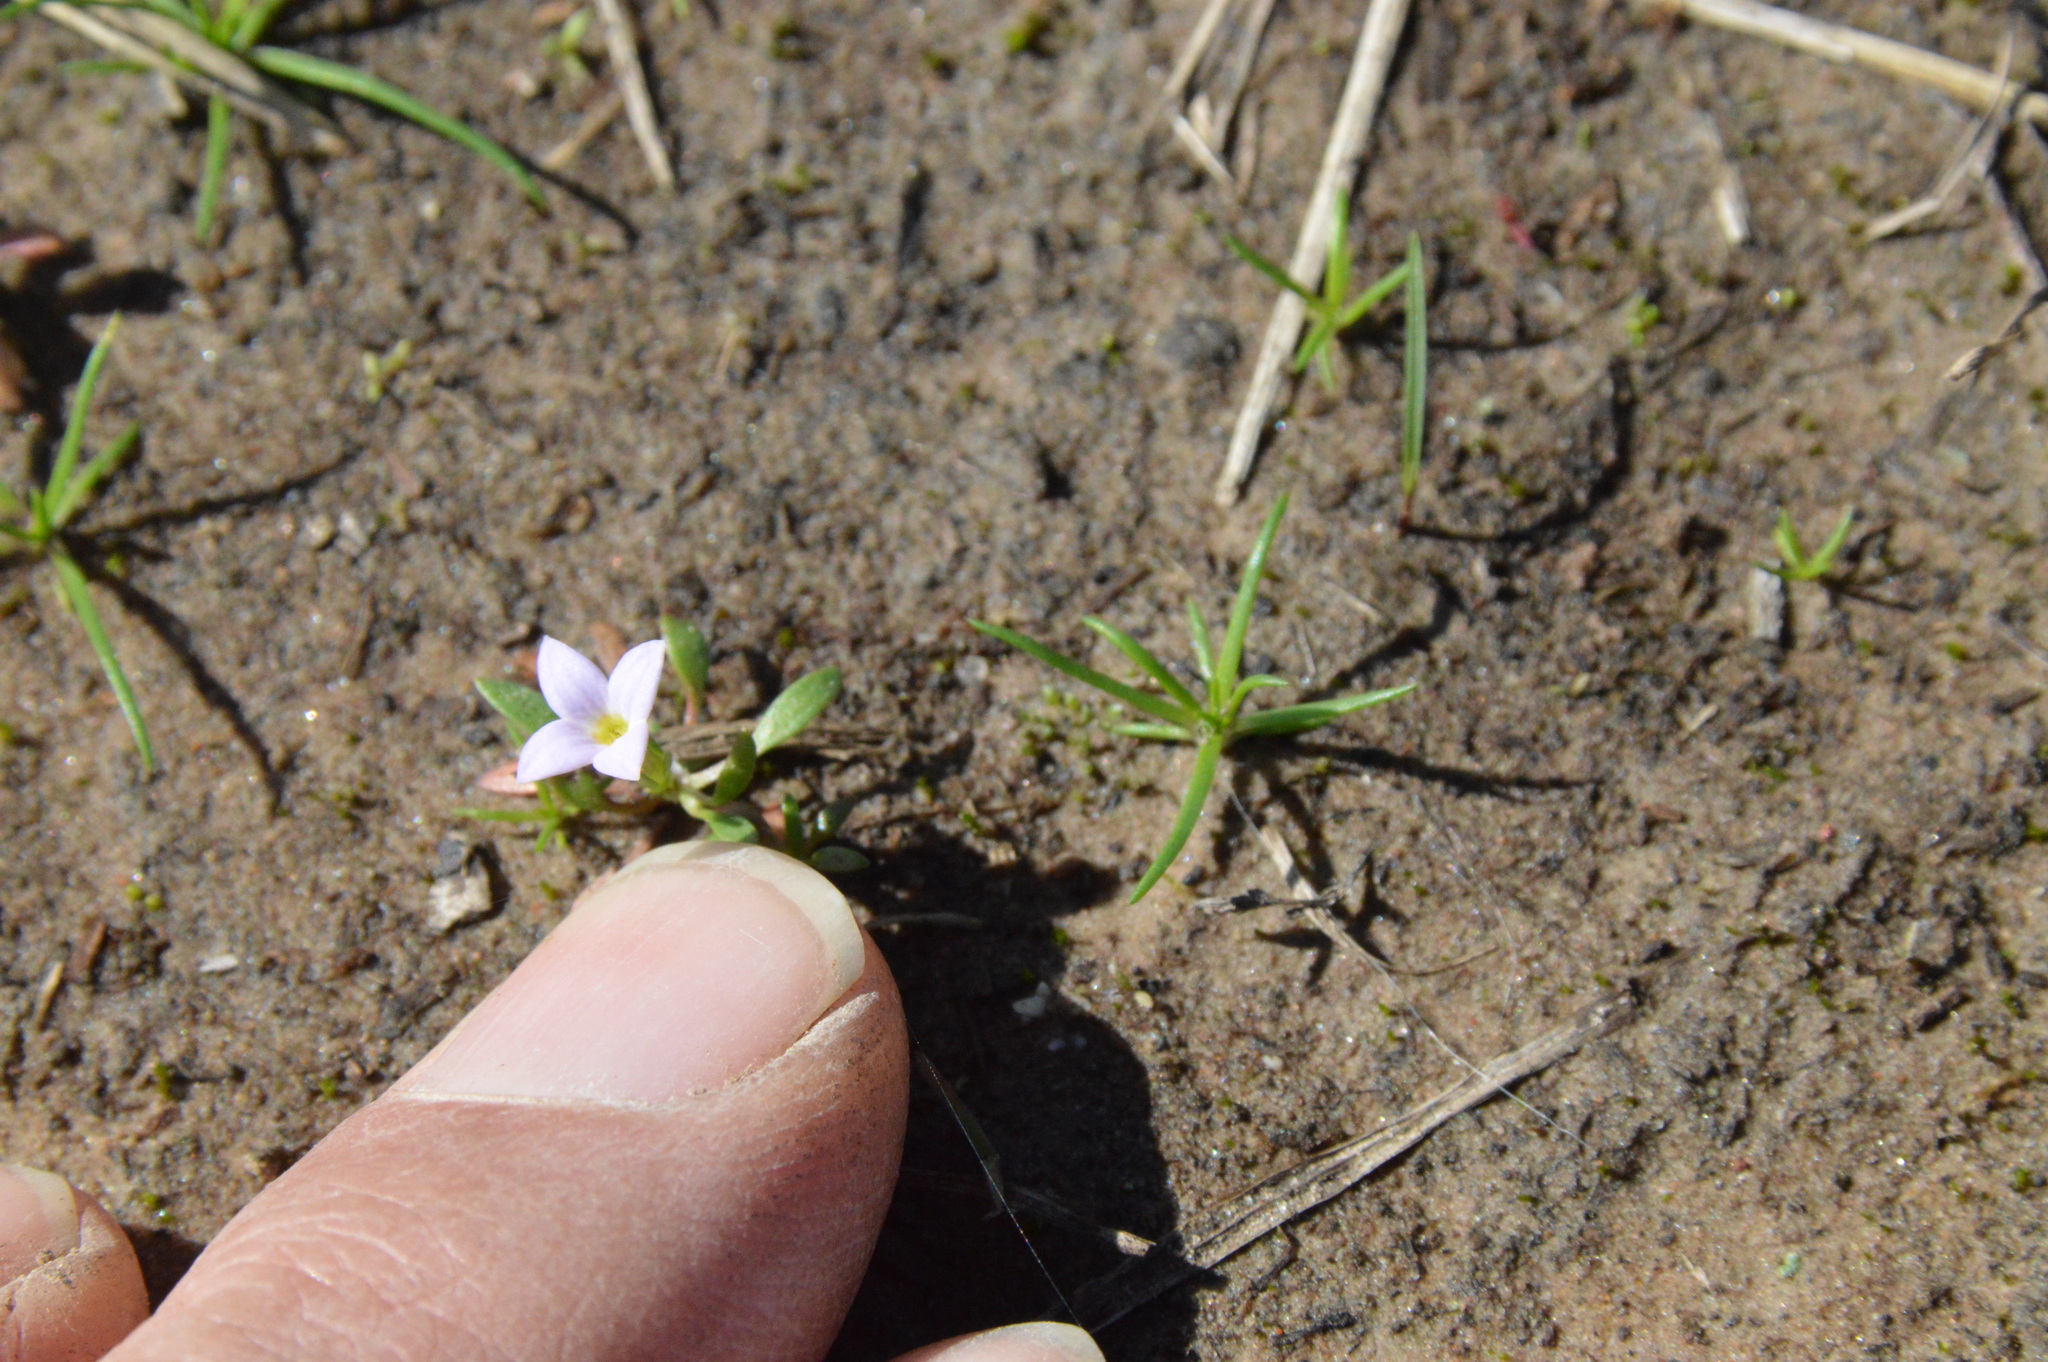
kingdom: Plantae
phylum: Tracheophyta
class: Magnoliopsida
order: Gentianales
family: Rubiaceae
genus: Houstonia
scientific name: Houstonia rosea
